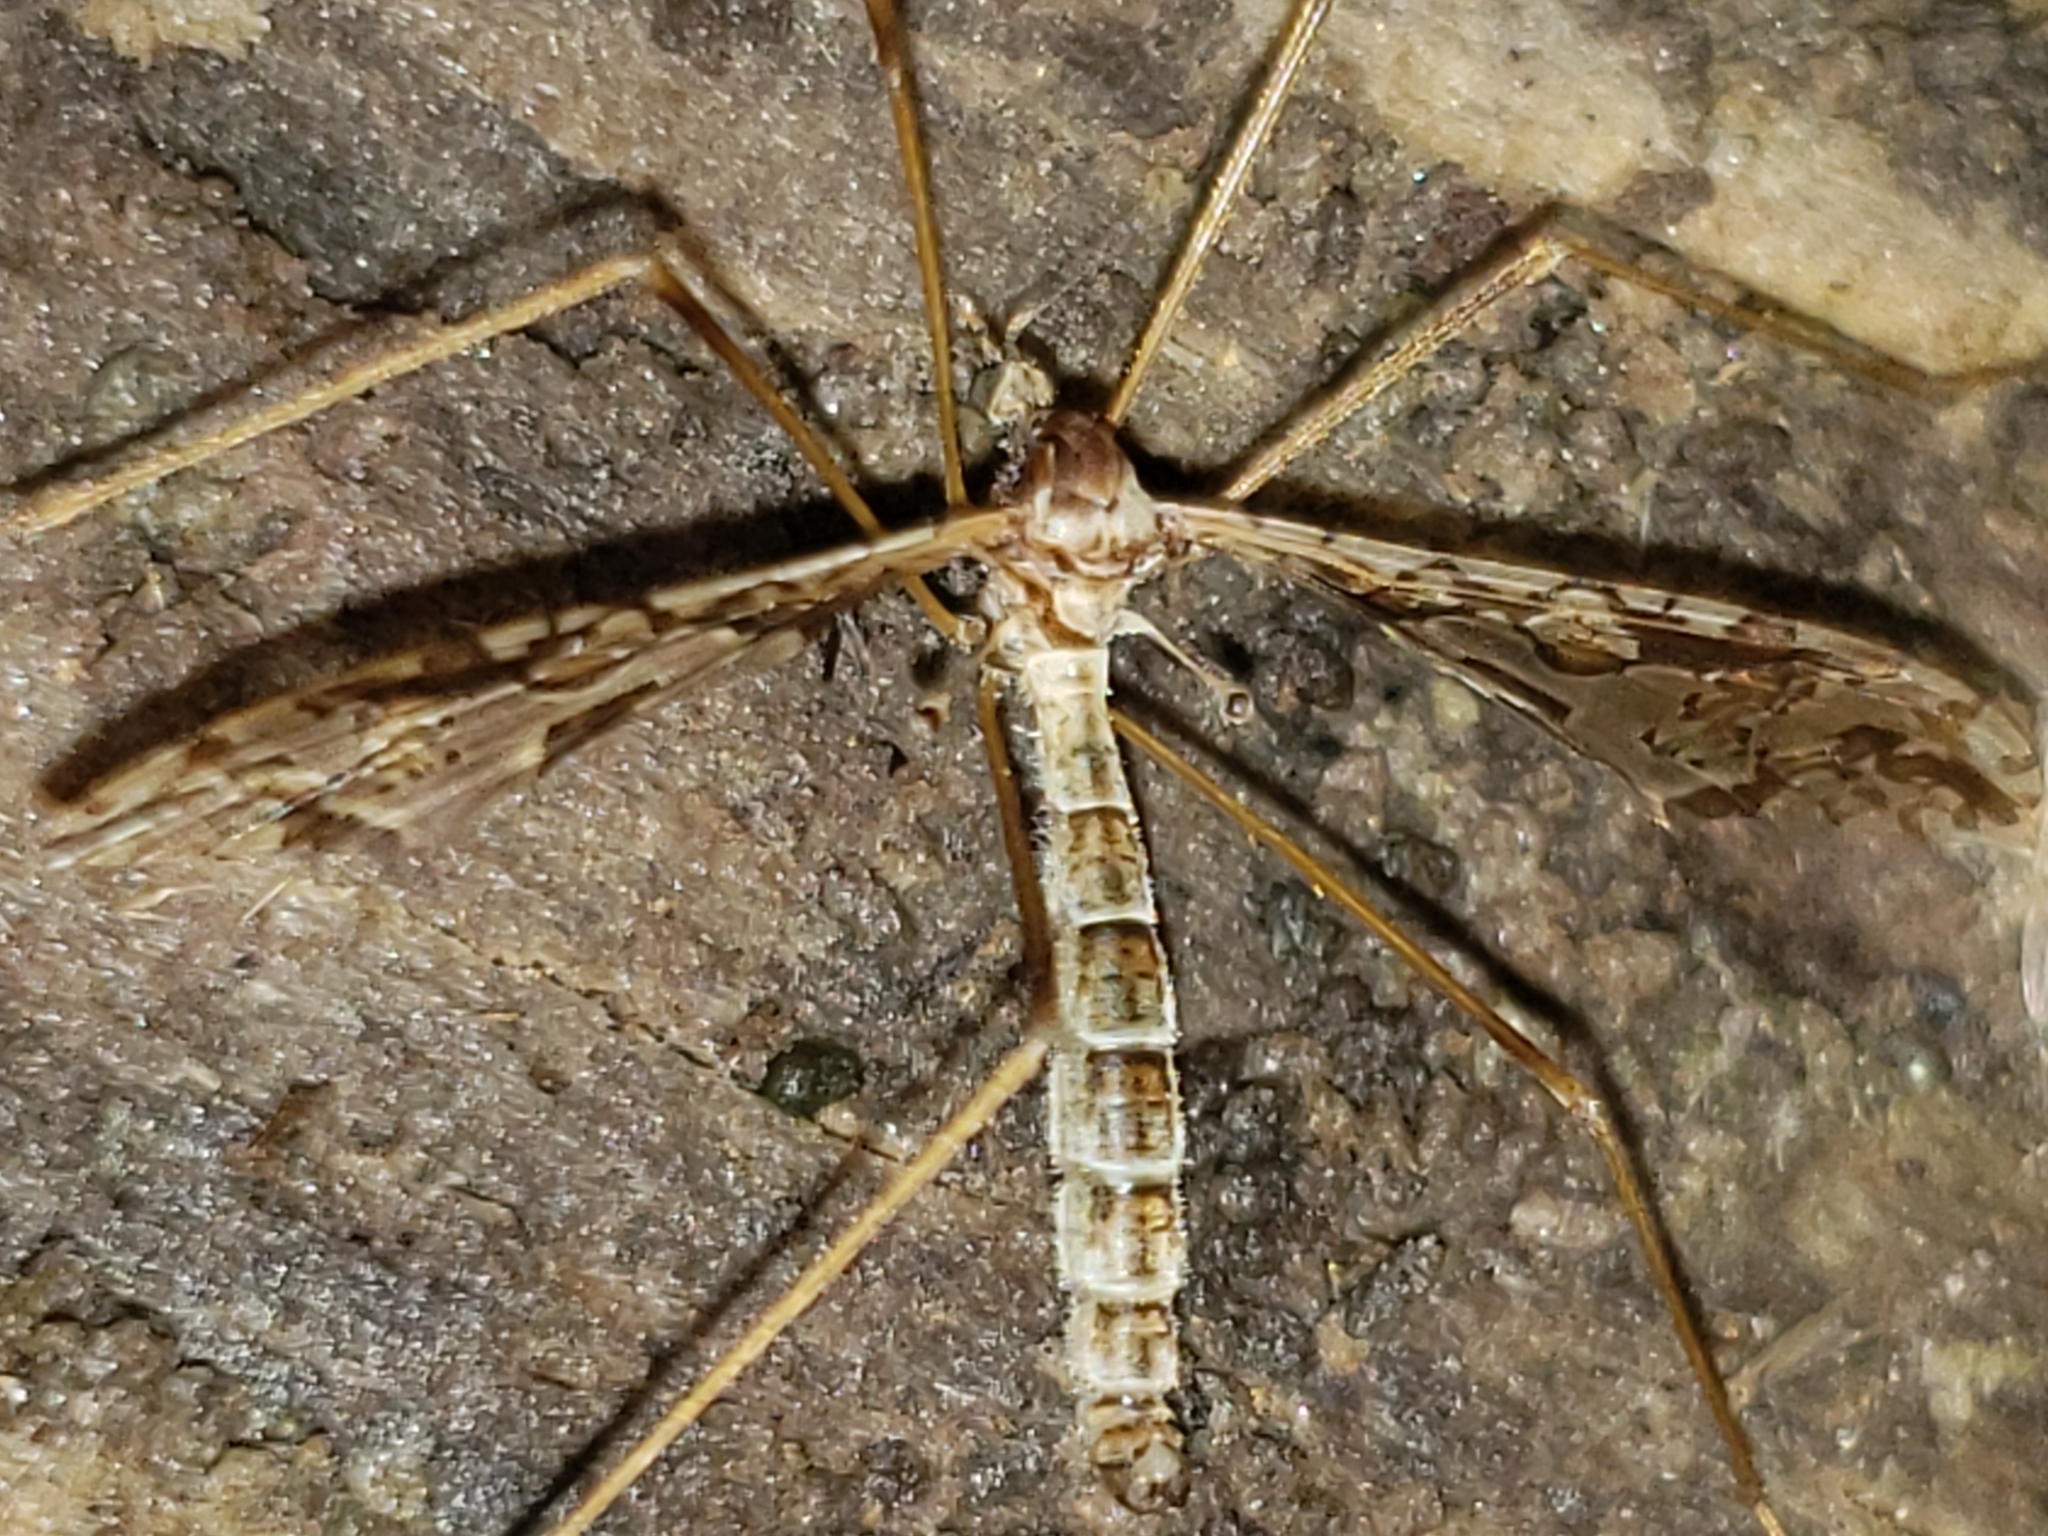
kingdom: Animalia
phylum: Arthropoda
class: Insecta
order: Diptera
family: Limoniidae
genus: Epiphragma
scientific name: Epiphragma solatrix
